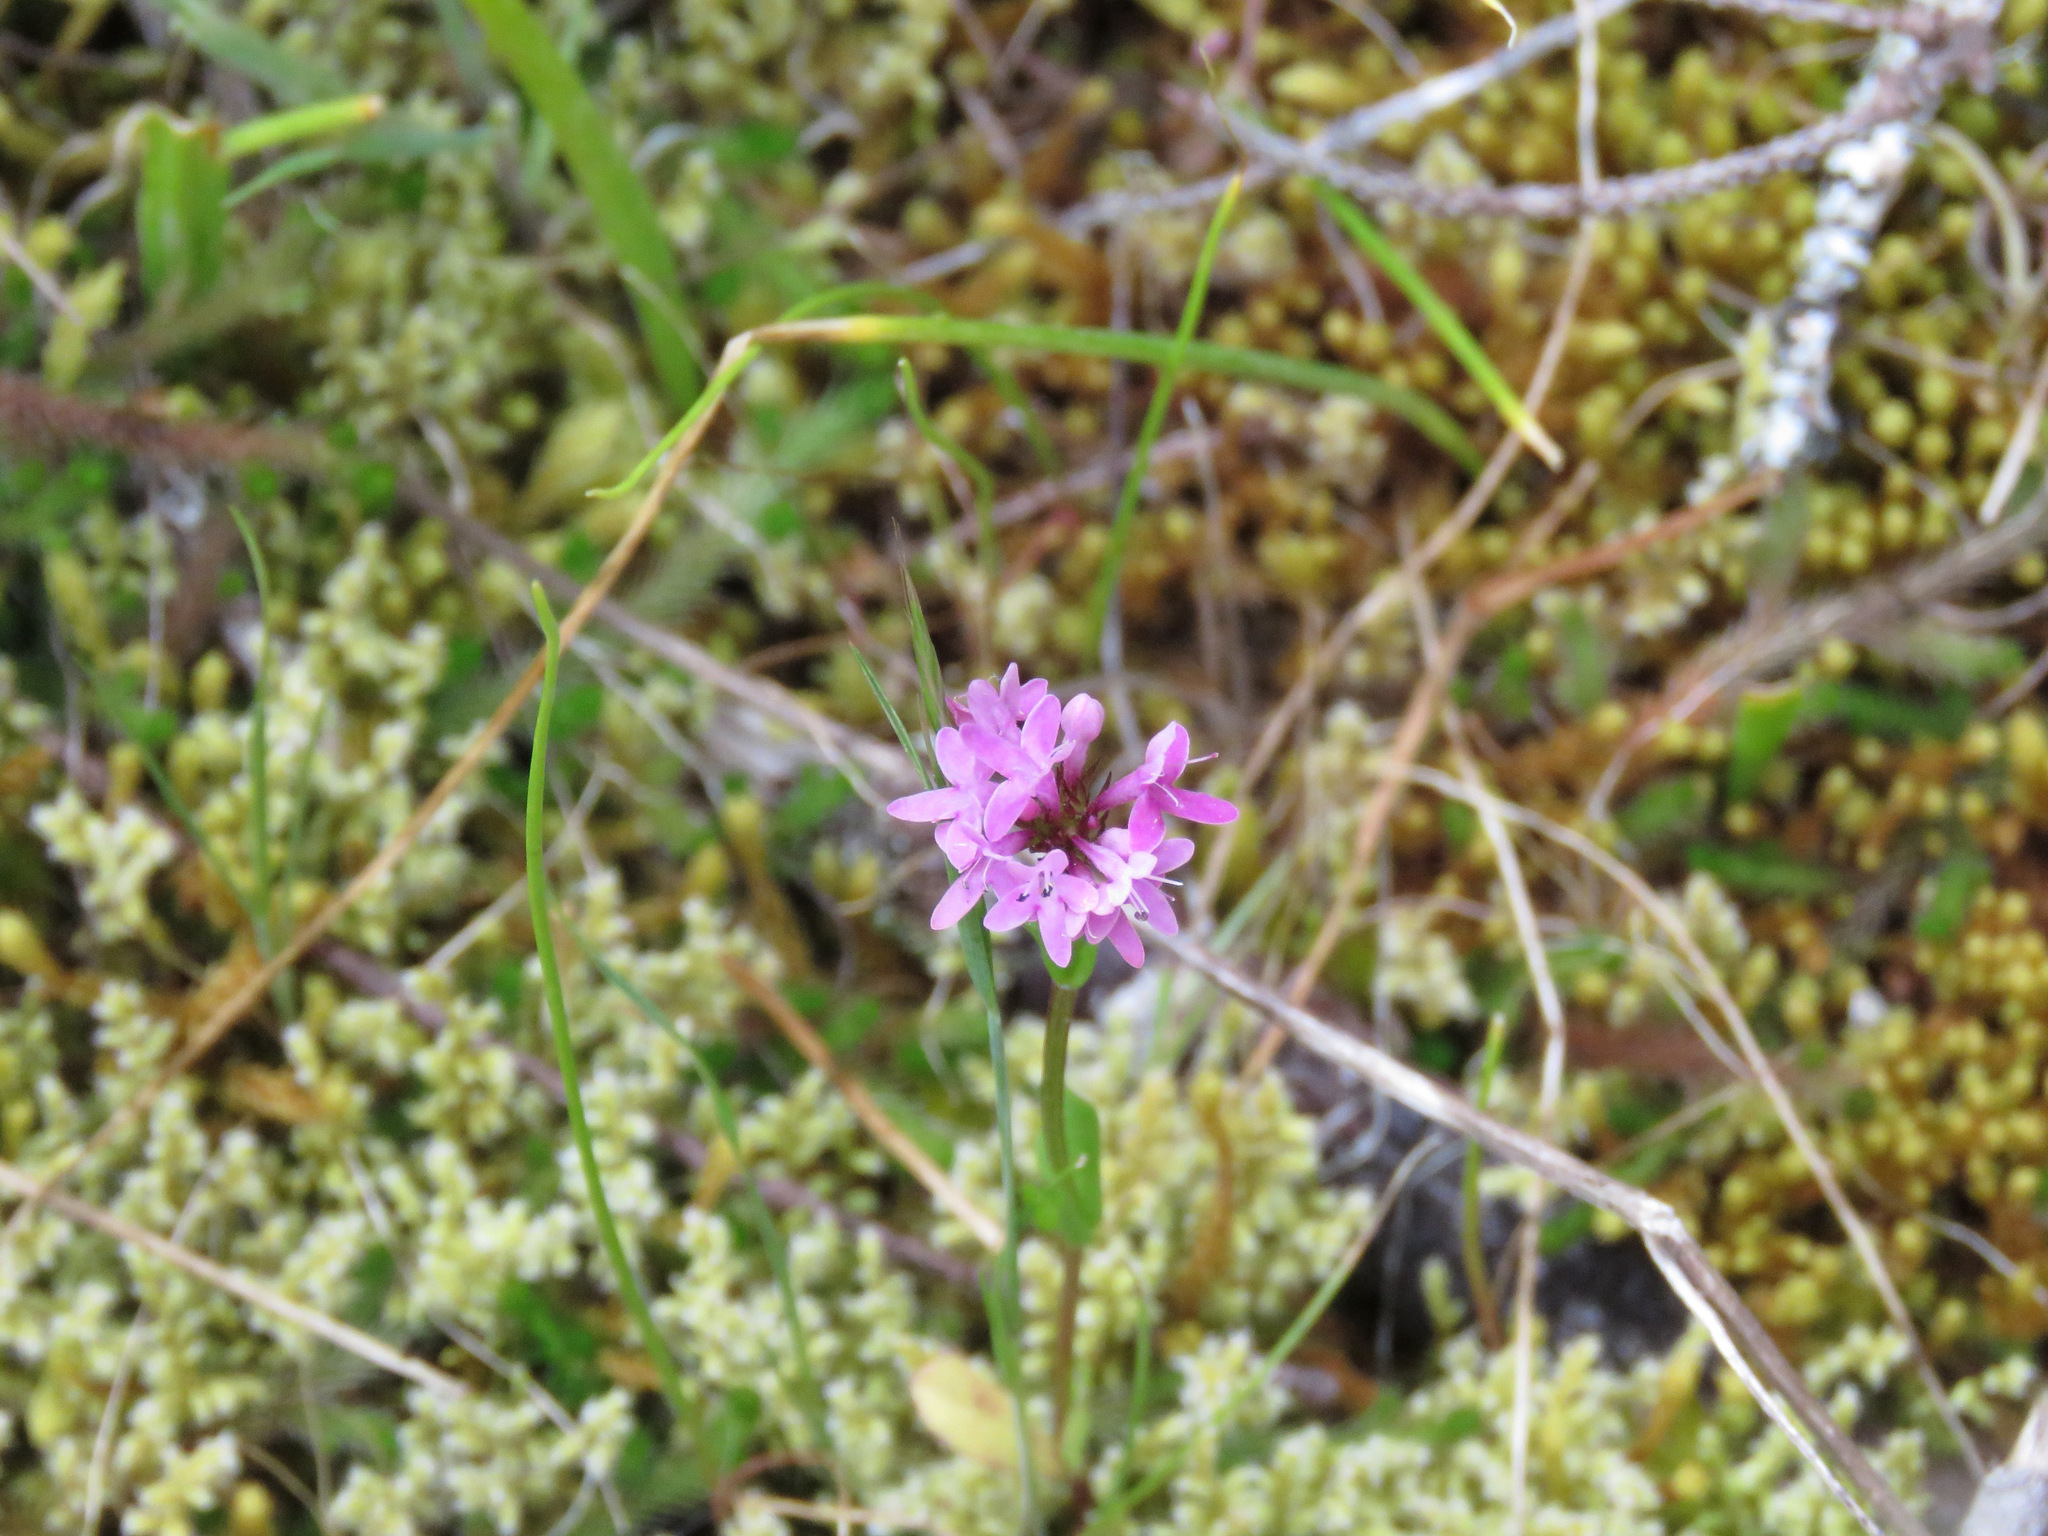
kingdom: Plantae
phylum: Tracheophyta
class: Magnoliopsida
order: Dipsacales
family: Caprifoliaceae
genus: Plectritis
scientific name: Plectritis congesta
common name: Pink plectritis
